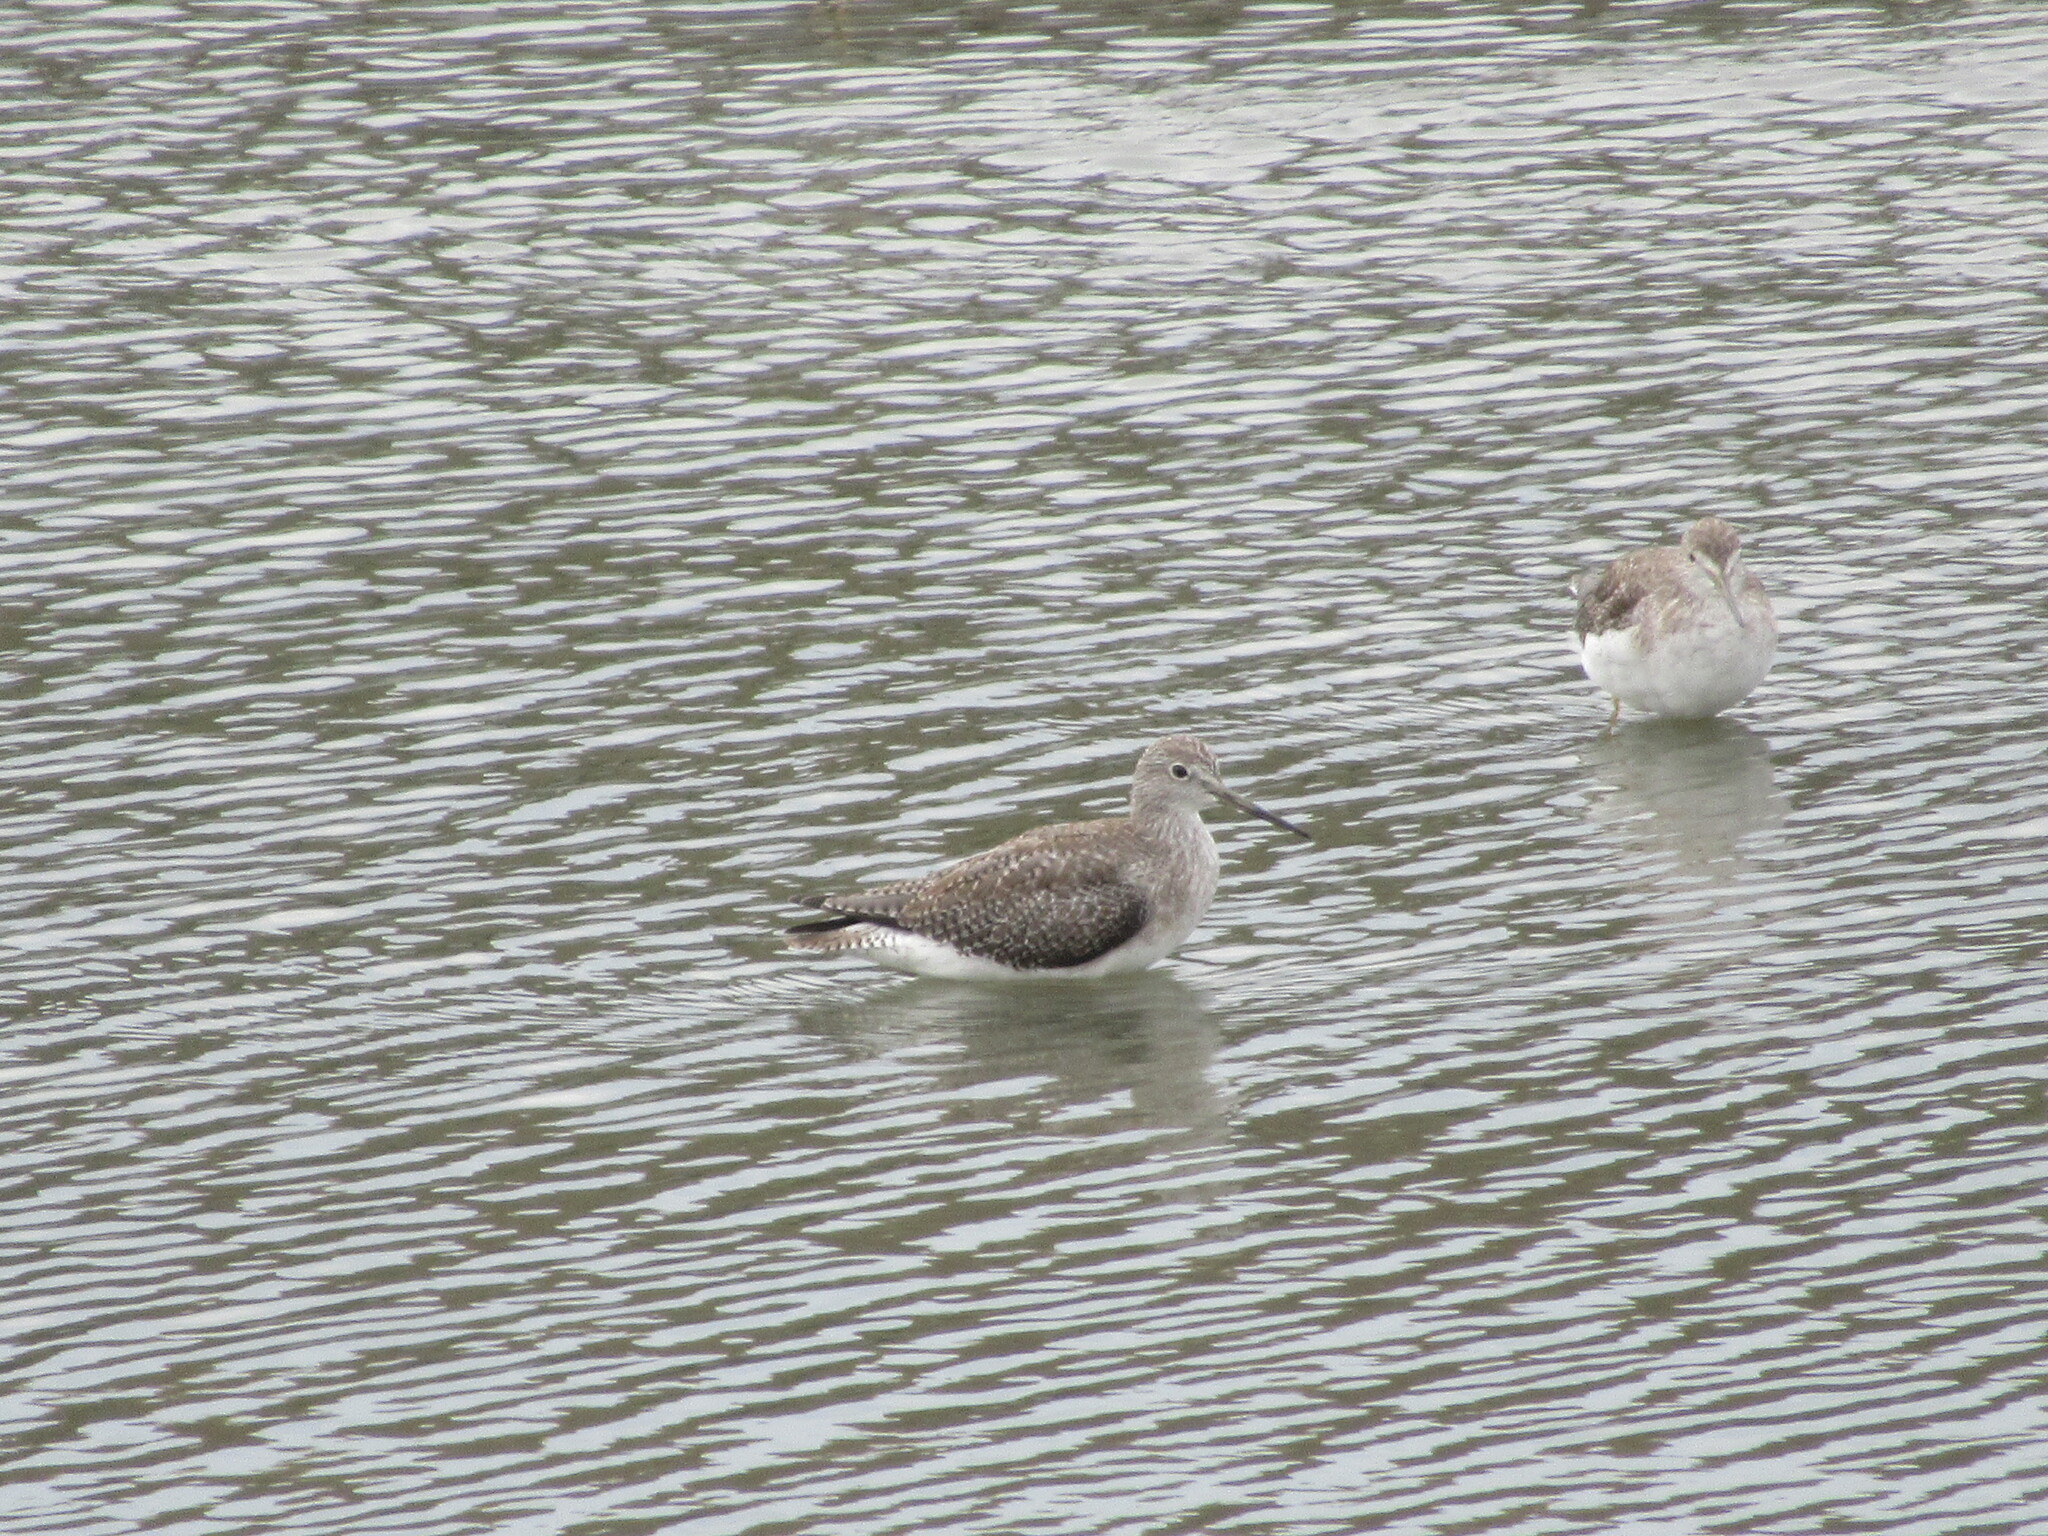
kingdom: Animalia
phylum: Chordata
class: Aves
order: Charadriiformes
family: Scolopacidae
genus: Tringa
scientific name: Tringa melanoleuca
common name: Greater yellowlegs
